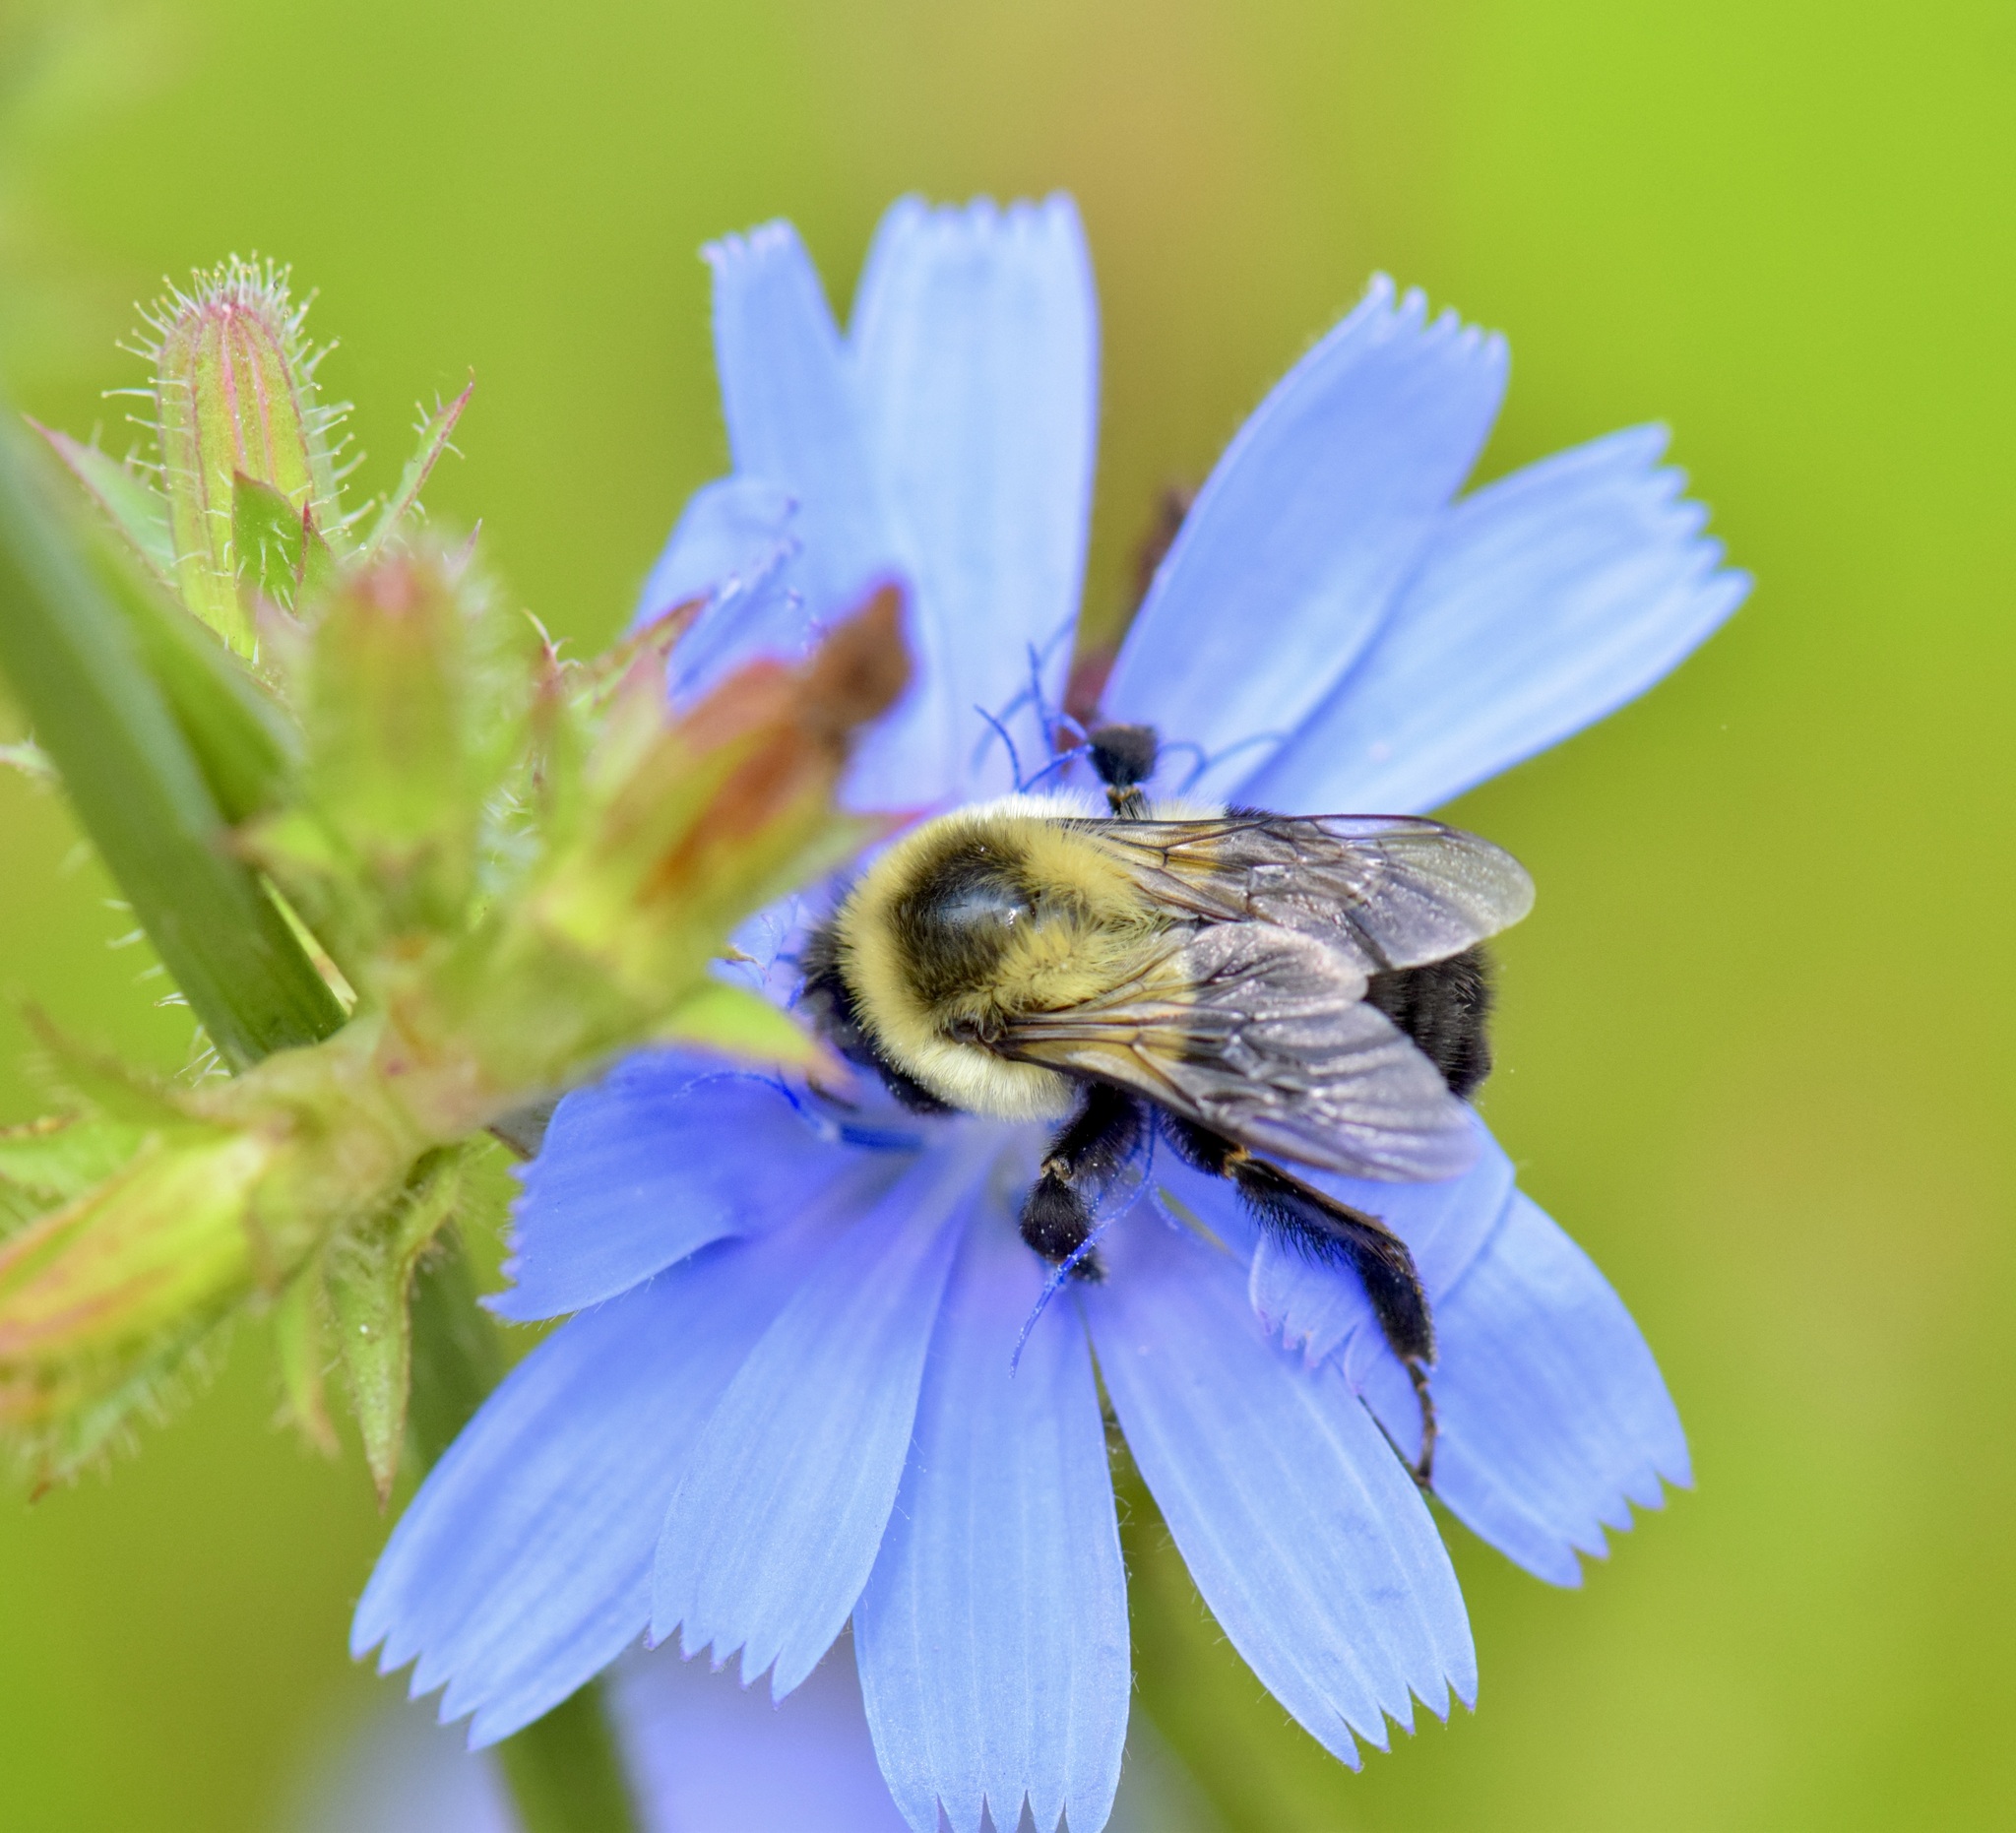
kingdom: Animalia
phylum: Arthropoda
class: Insecta
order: Hymenoptera
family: Apidae
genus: Bombus
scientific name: Bombus impatiens
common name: Common eastern bumble bee
